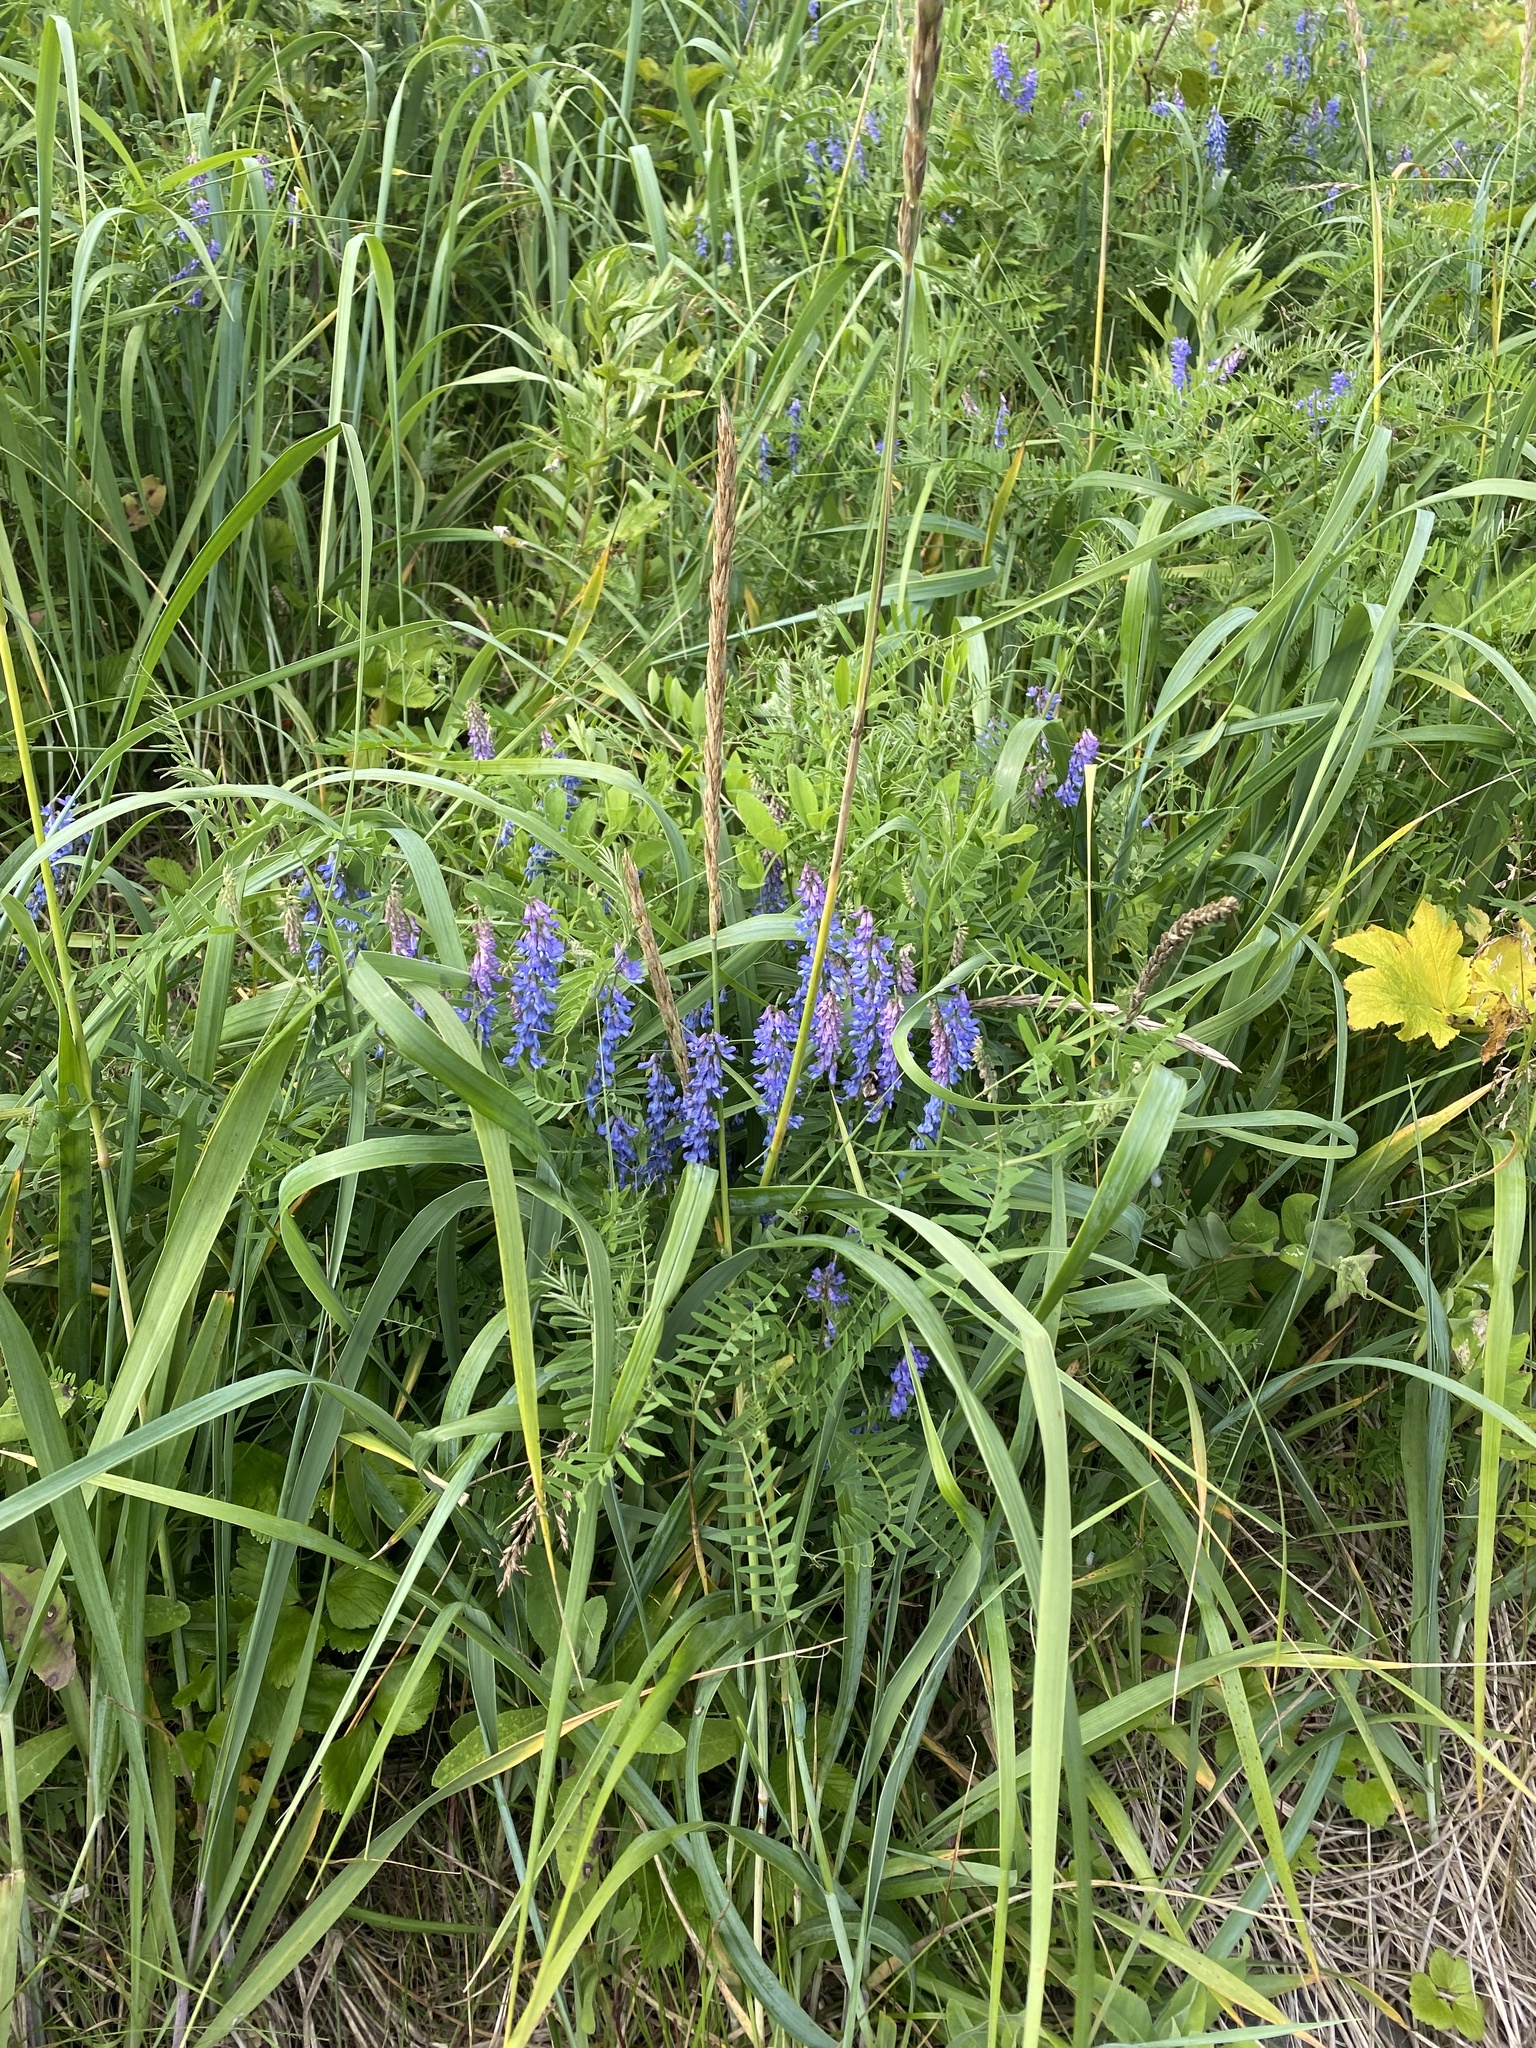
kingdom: Plantae
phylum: Tracheophyta
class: Magnoliopsida
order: Fabales
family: Fabaceae
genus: Vicia
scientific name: Vicia cracca
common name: Bird vetch
